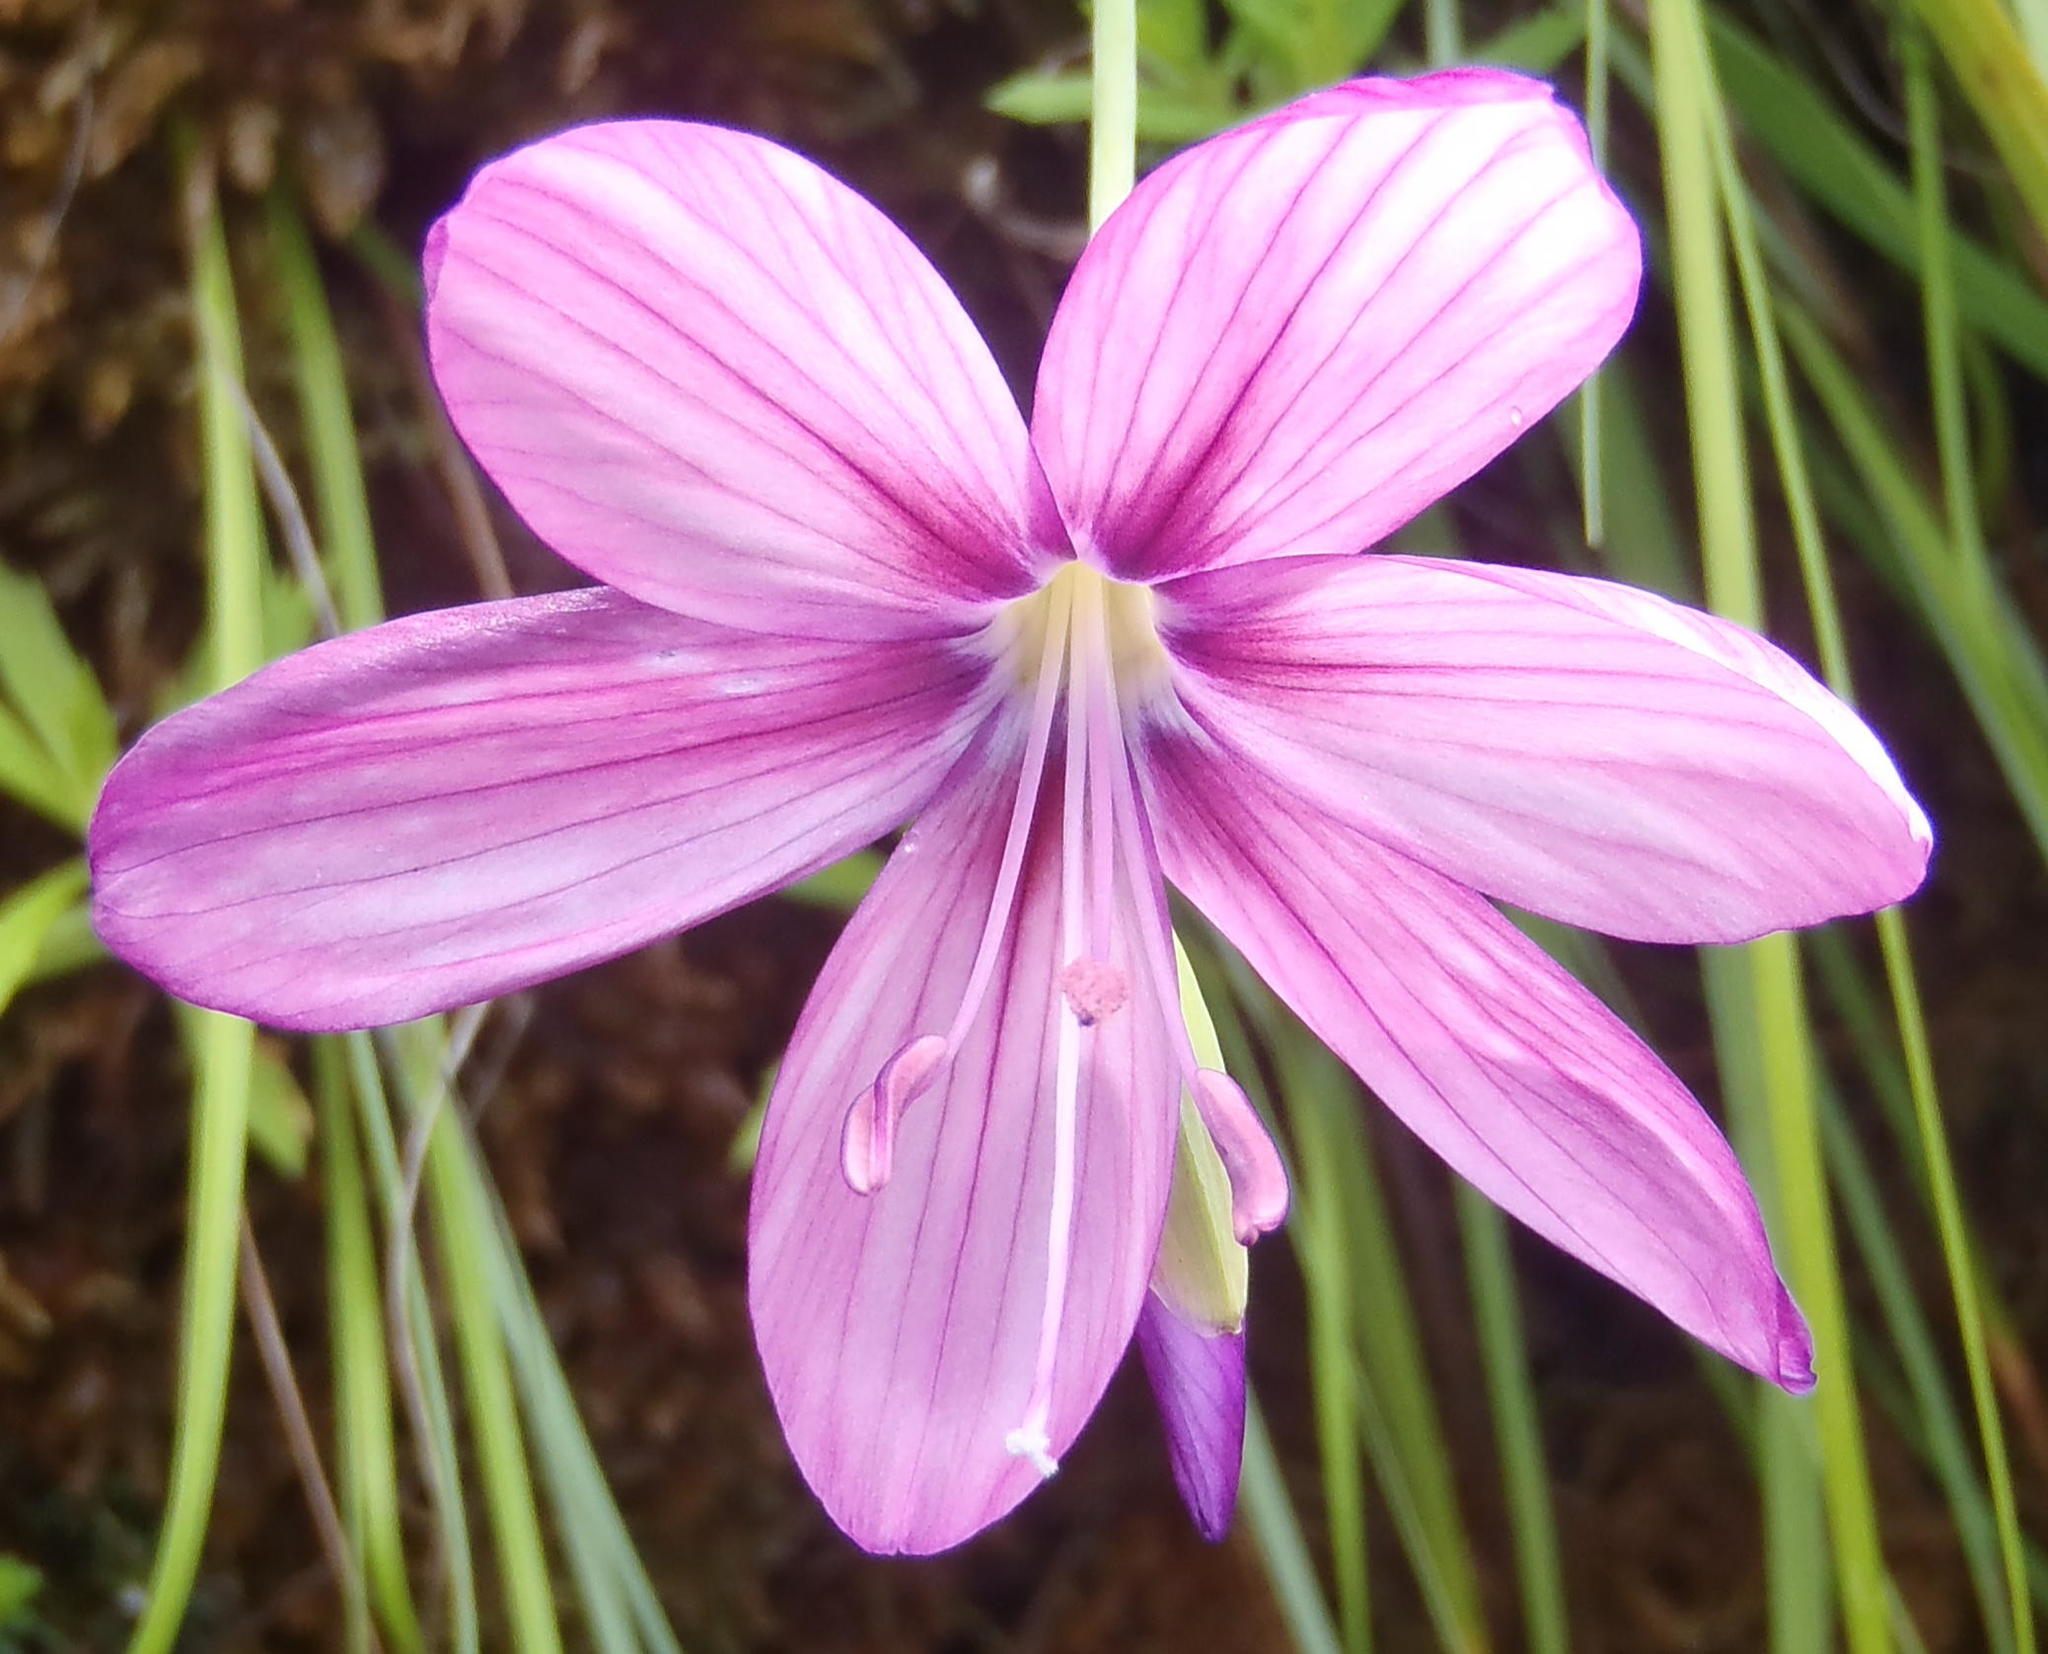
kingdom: Plantae
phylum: Tracheophyta
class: Liliopsida
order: Asparagales
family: Iridaceae
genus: Geissorhiza
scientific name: Geissorhiza outeniquensis
